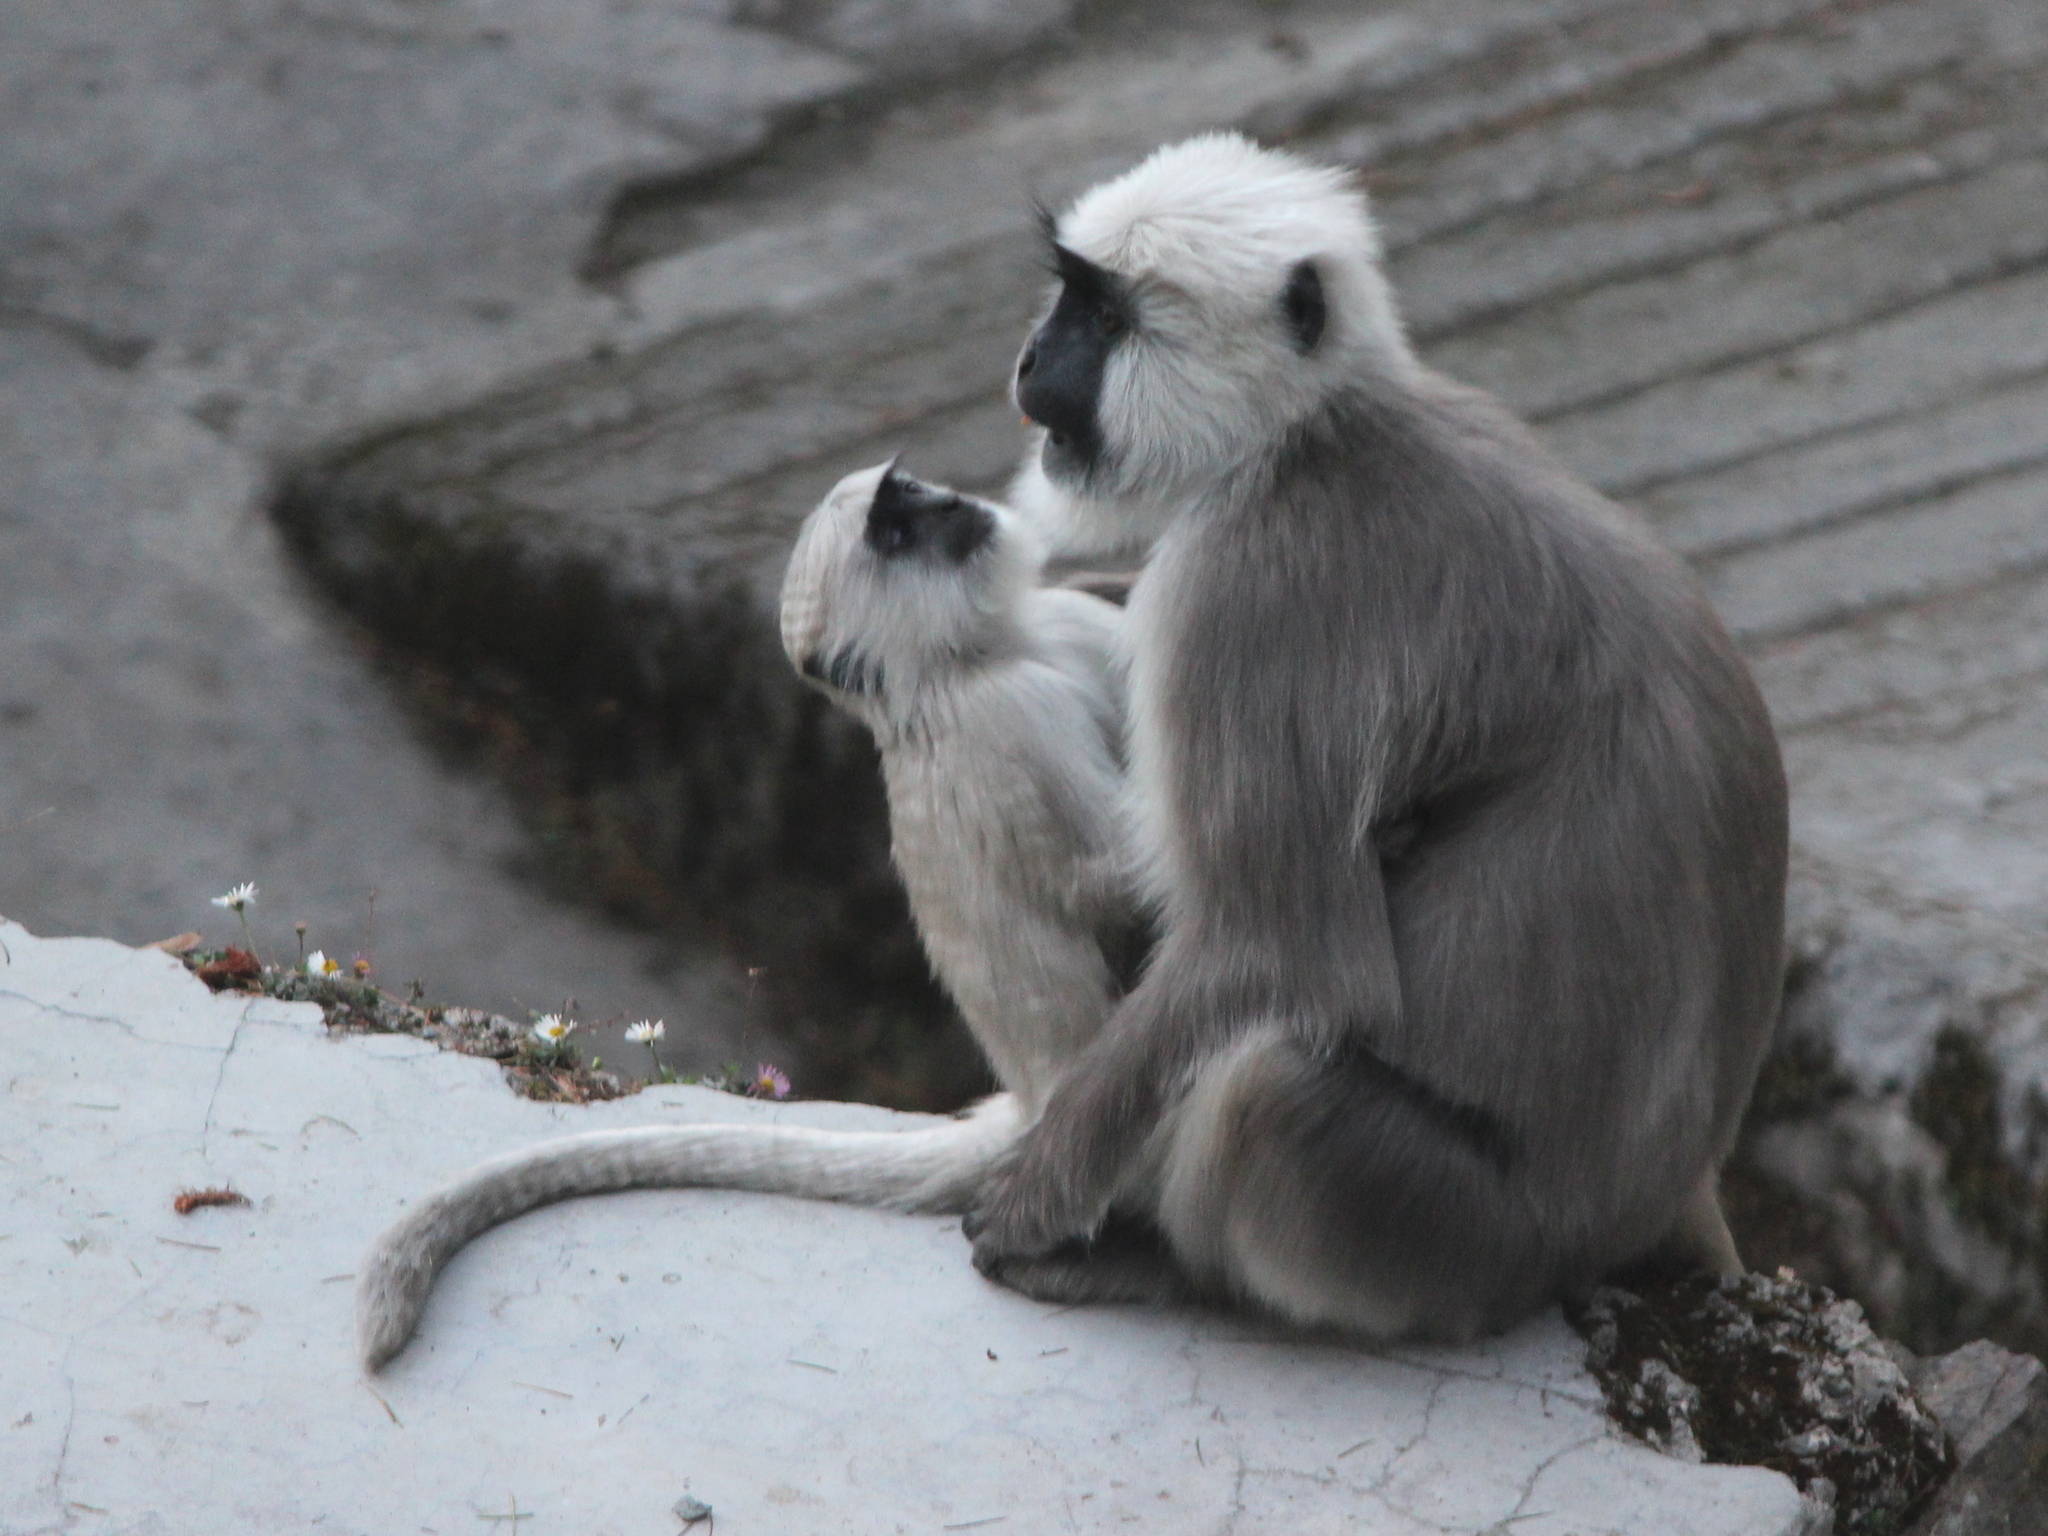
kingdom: Animalia
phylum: Chordata
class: Mammalia
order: Primates
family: Cercopithecidae
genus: Semnopithecus
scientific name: Semnopithecus schistaceus
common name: Nepal gray langur
